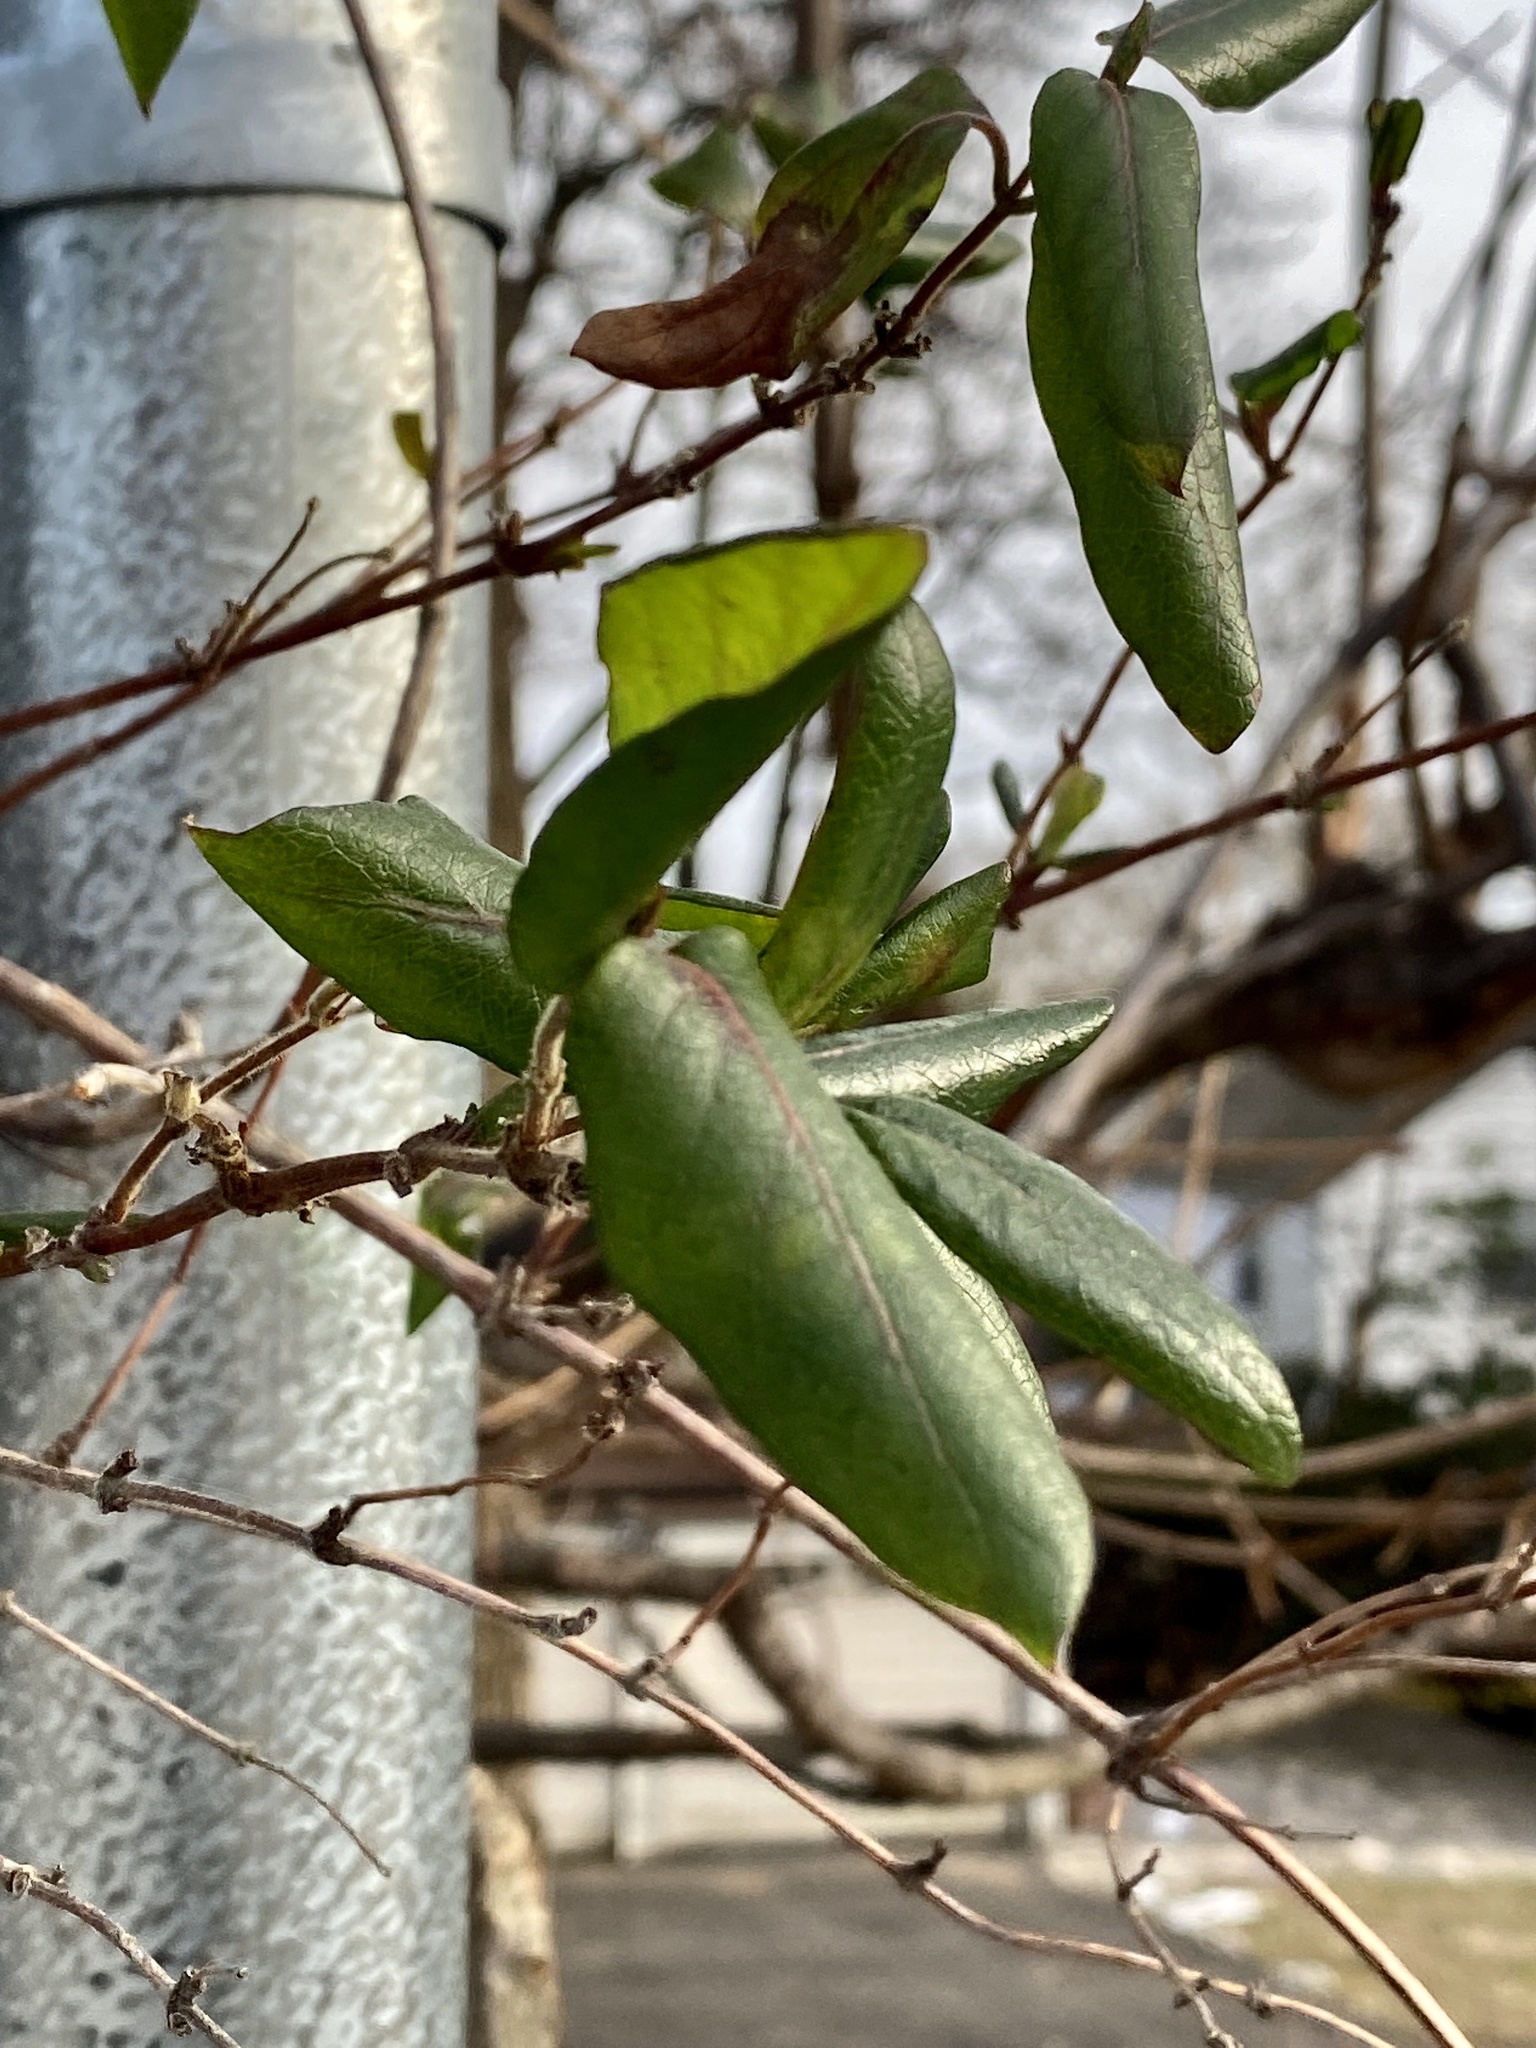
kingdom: Plantae
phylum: Tracheophyta
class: Magnoliopsida
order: Dipsacales
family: Caprifoliaceae
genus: Lonicera
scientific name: Lonicera japonica
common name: Japanese honeysuckle
